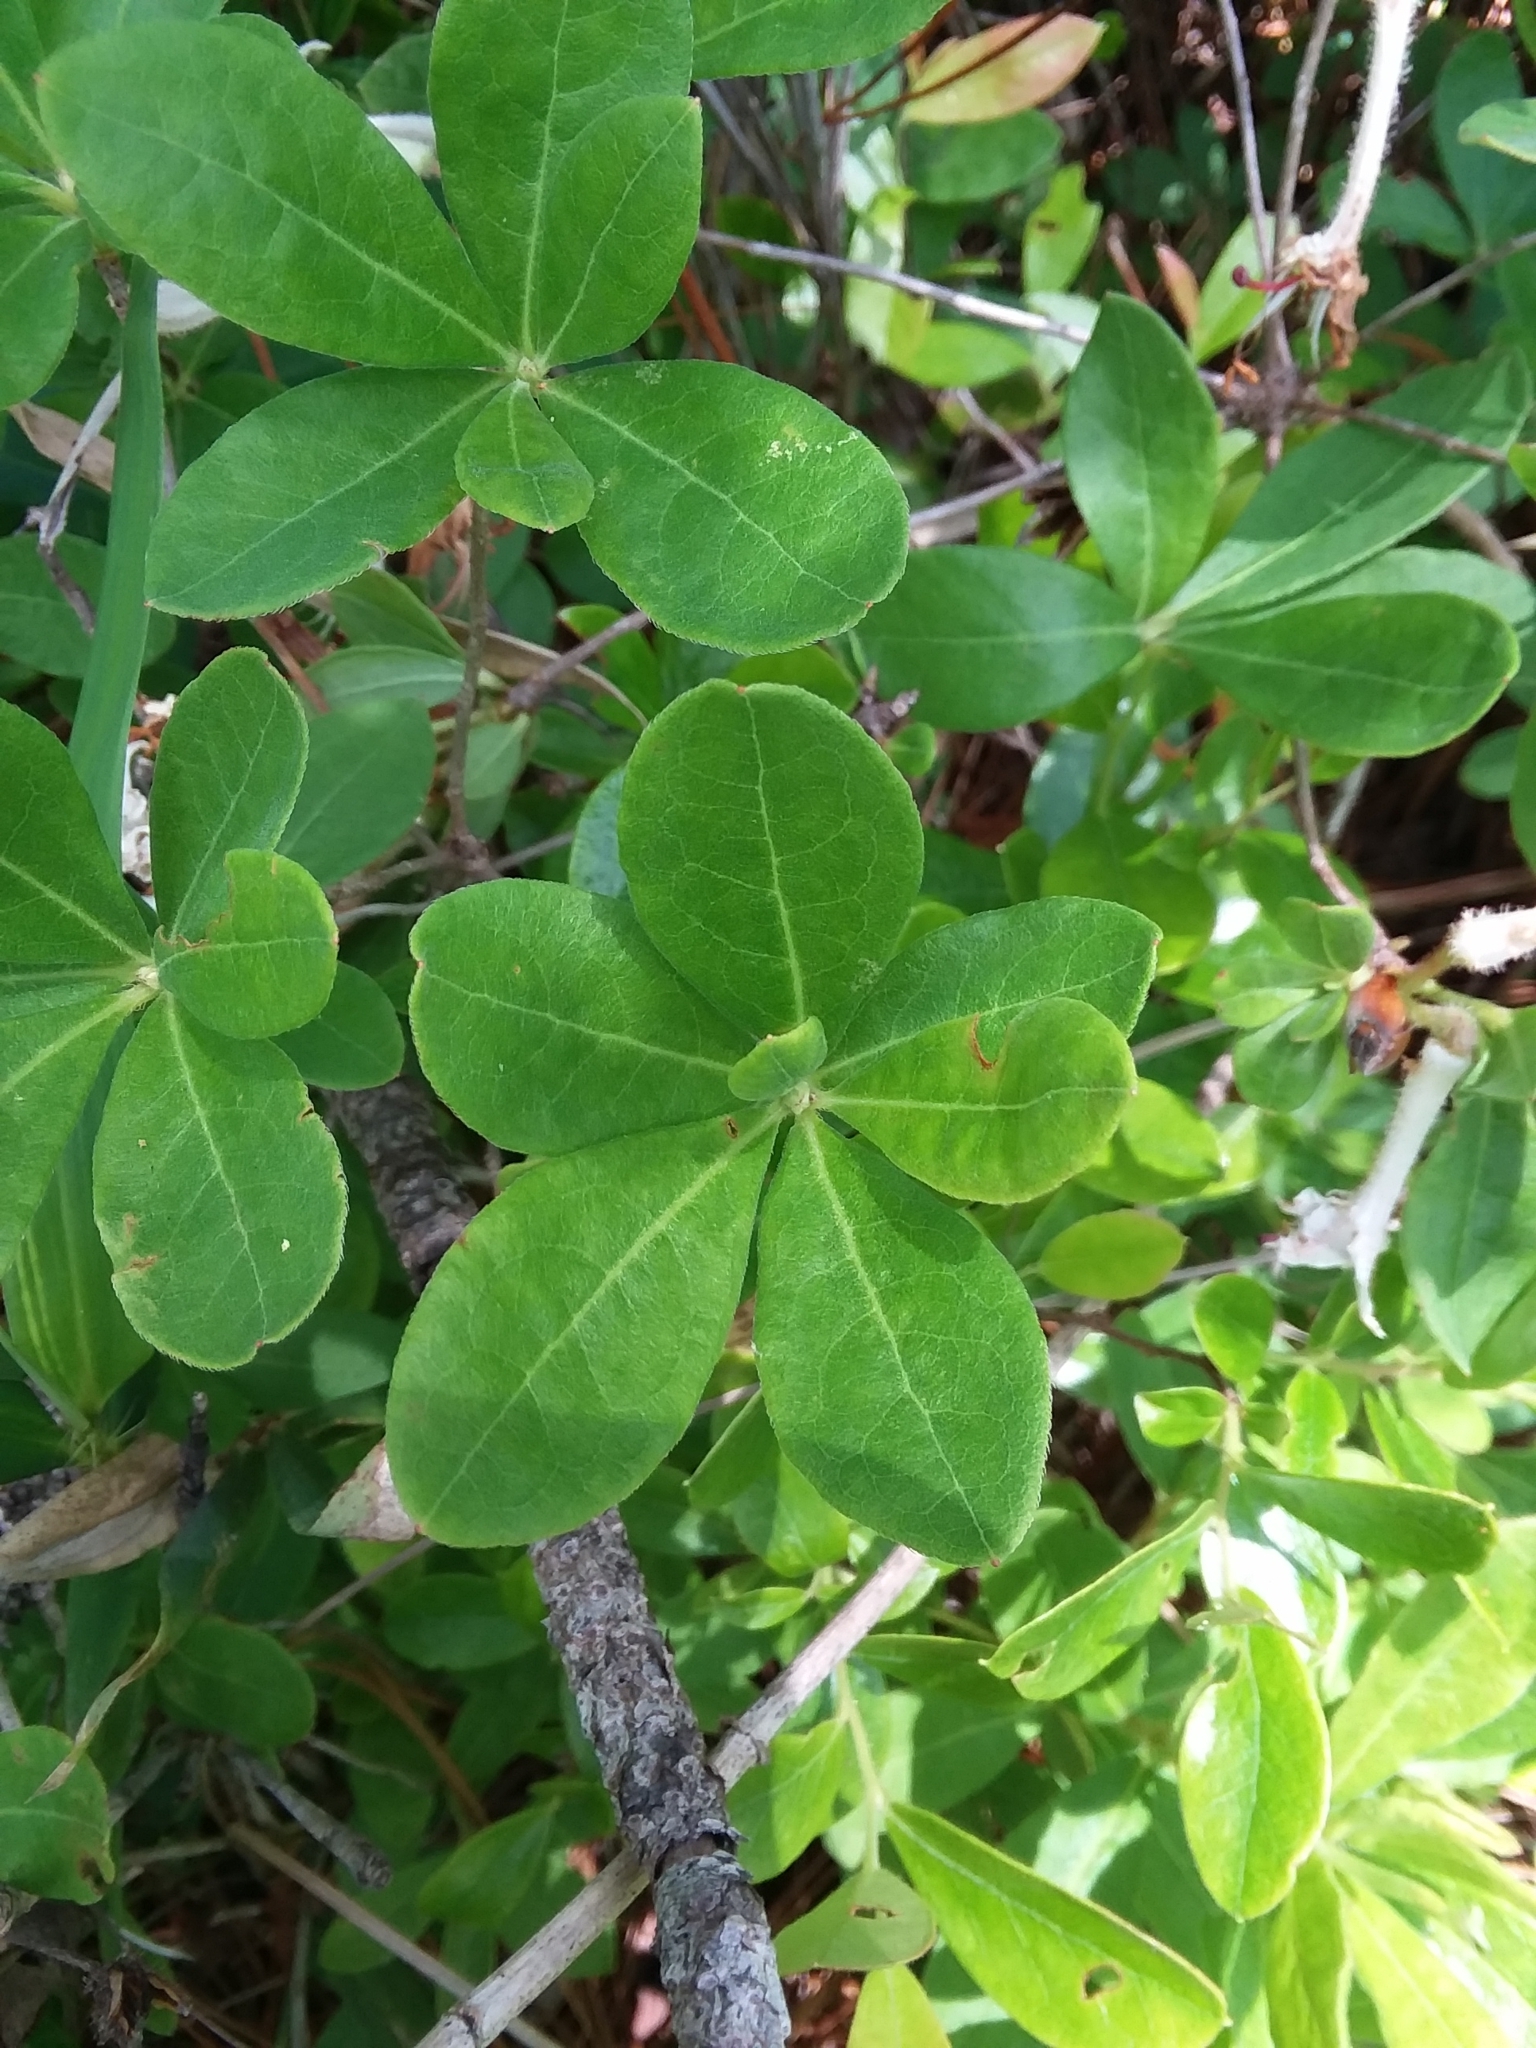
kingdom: Plantae
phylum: Tracheophyta
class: Magnoliopsida
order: Ericales
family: Ericaceae
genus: Rhododendron
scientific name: Rhododendron serrulatum
